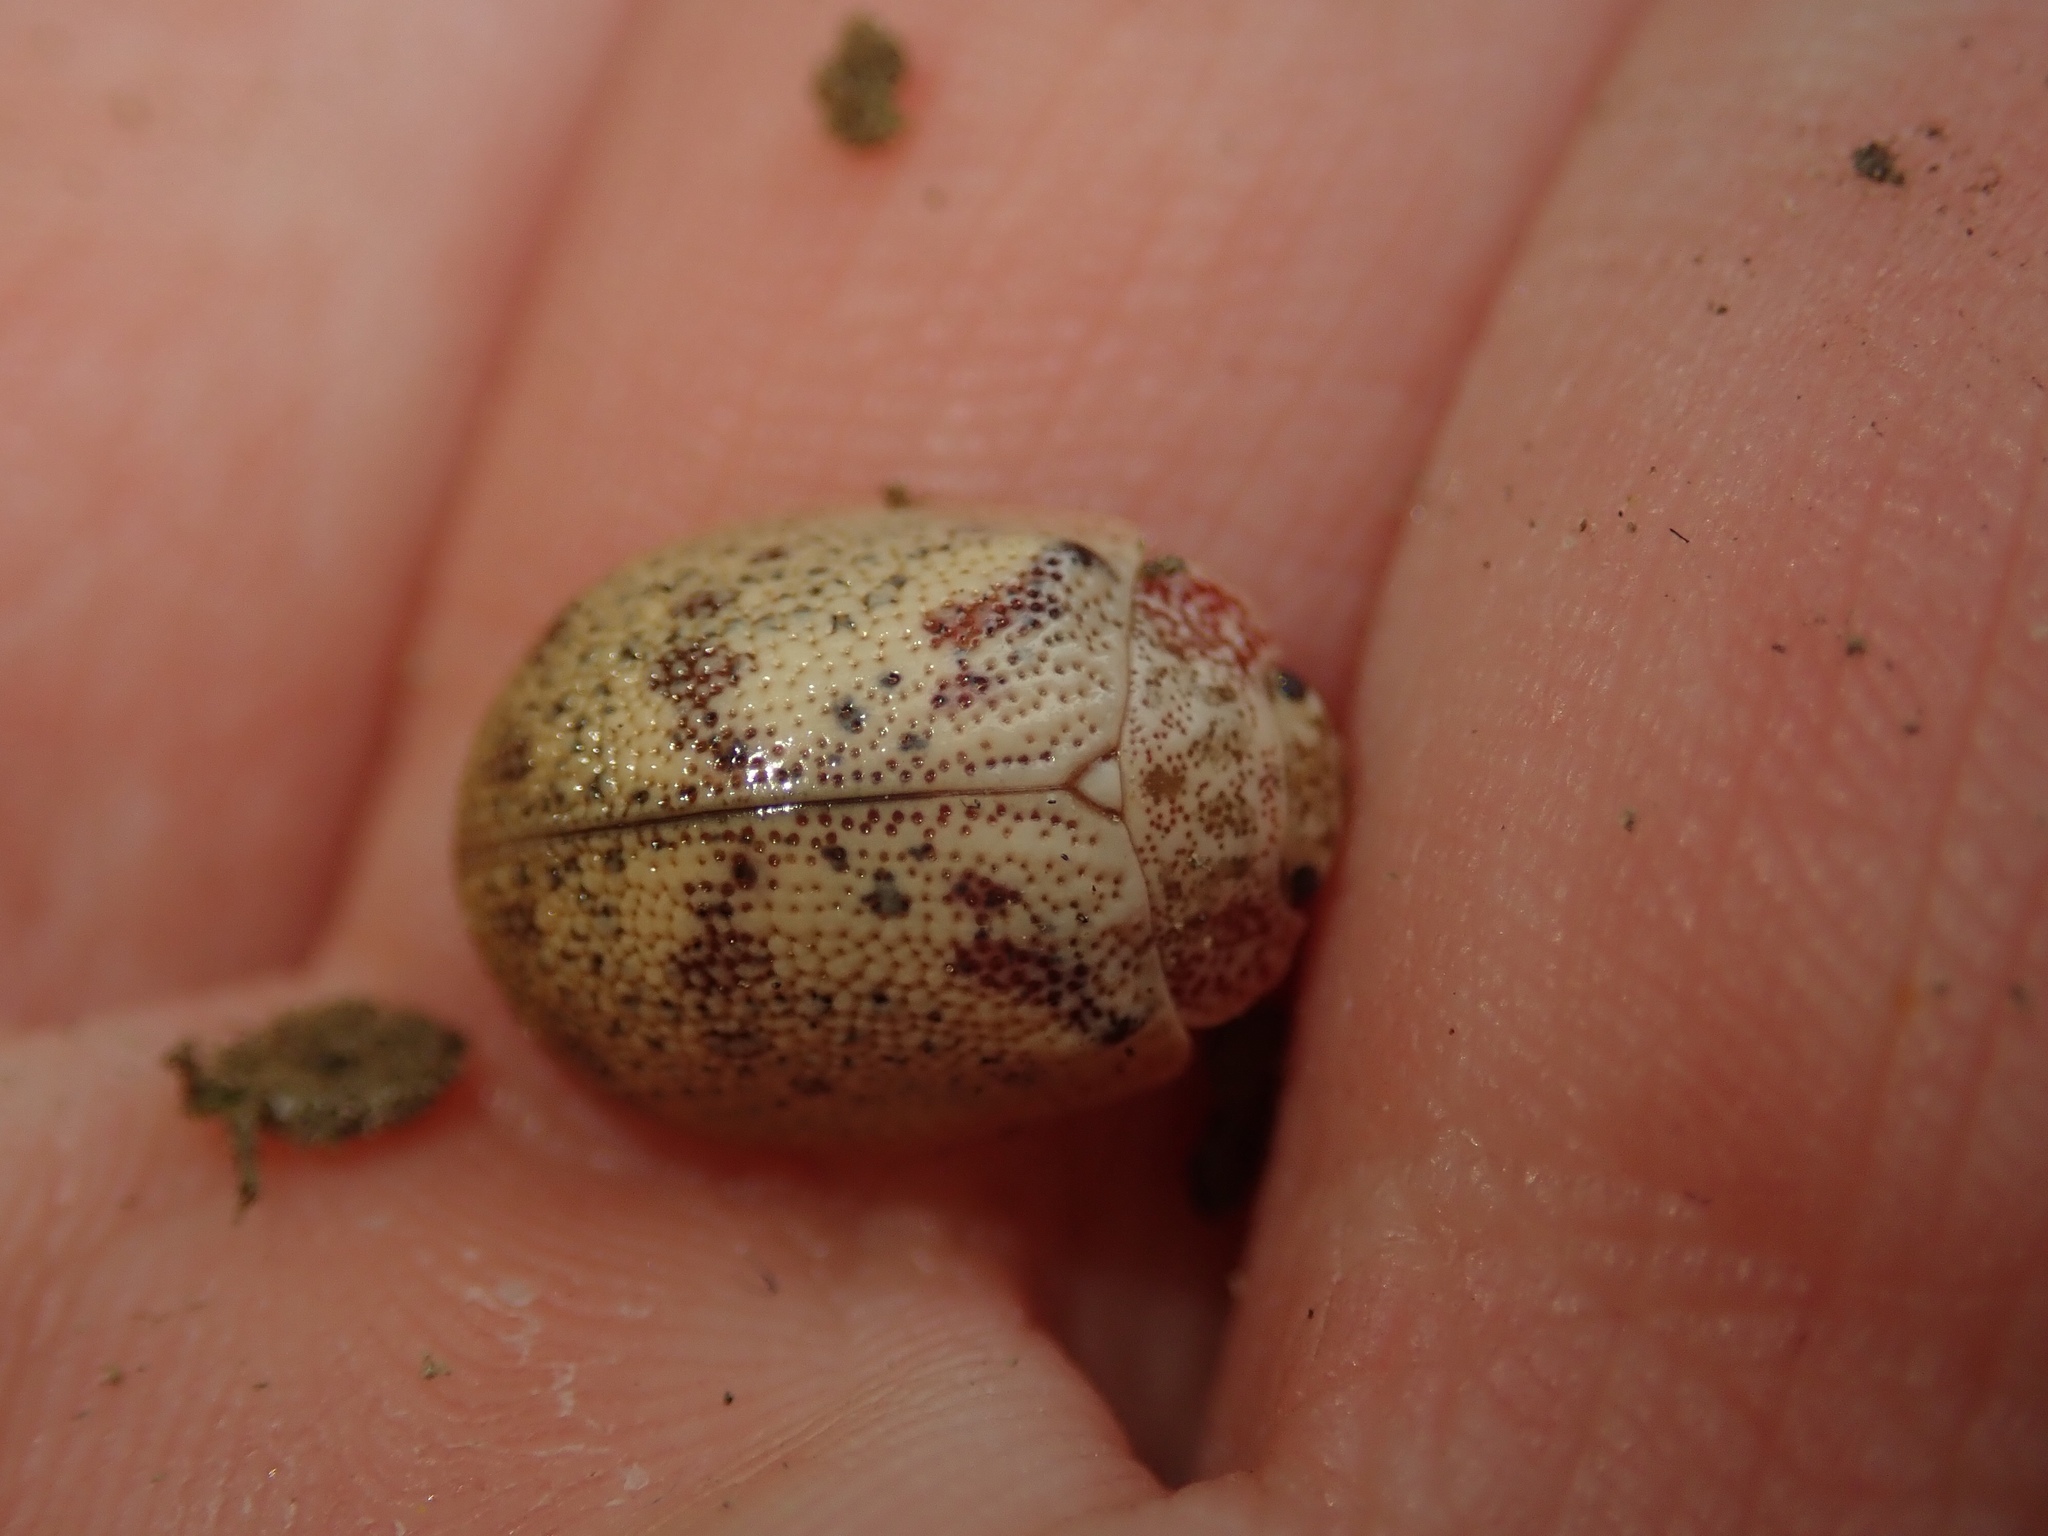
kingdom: Animalia
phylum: Arthropoda
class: Insecta
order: Coleoptera
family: Chrysomelidae
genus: Paropsis
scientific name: Paropsis charybdis
